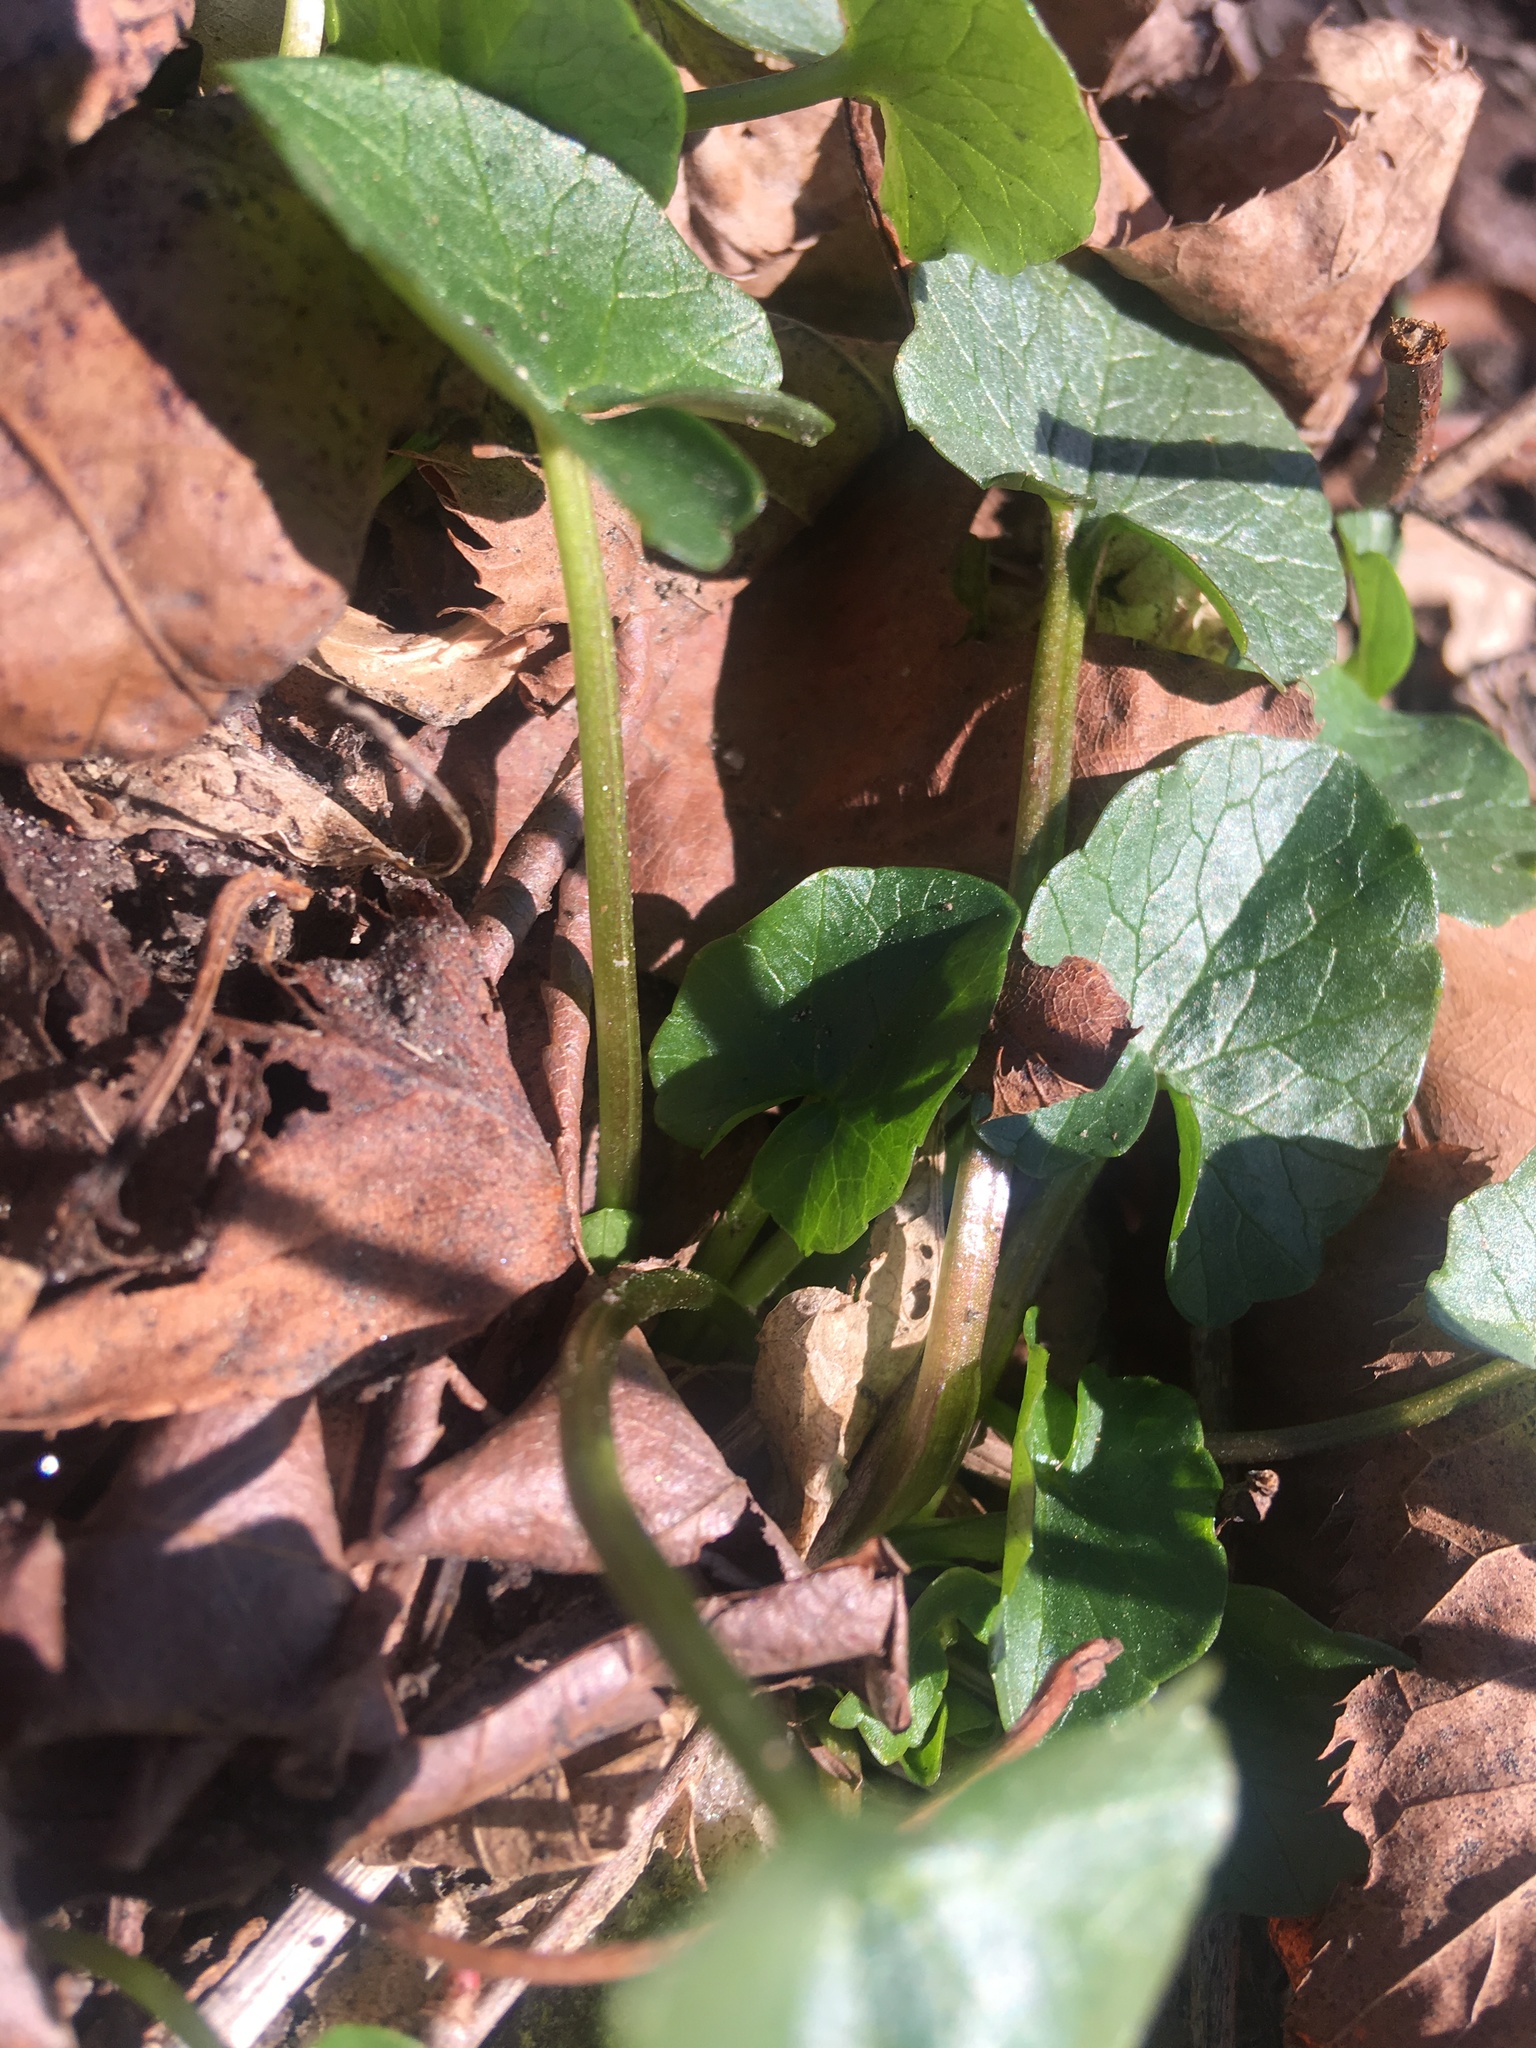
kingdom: Plantae
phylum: Tracheophyta
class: Magnoliopsida
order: Ranunculales
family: Ranunculaceae
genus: Ficaria
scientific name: Ficaria verna
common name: Lesser celandine
